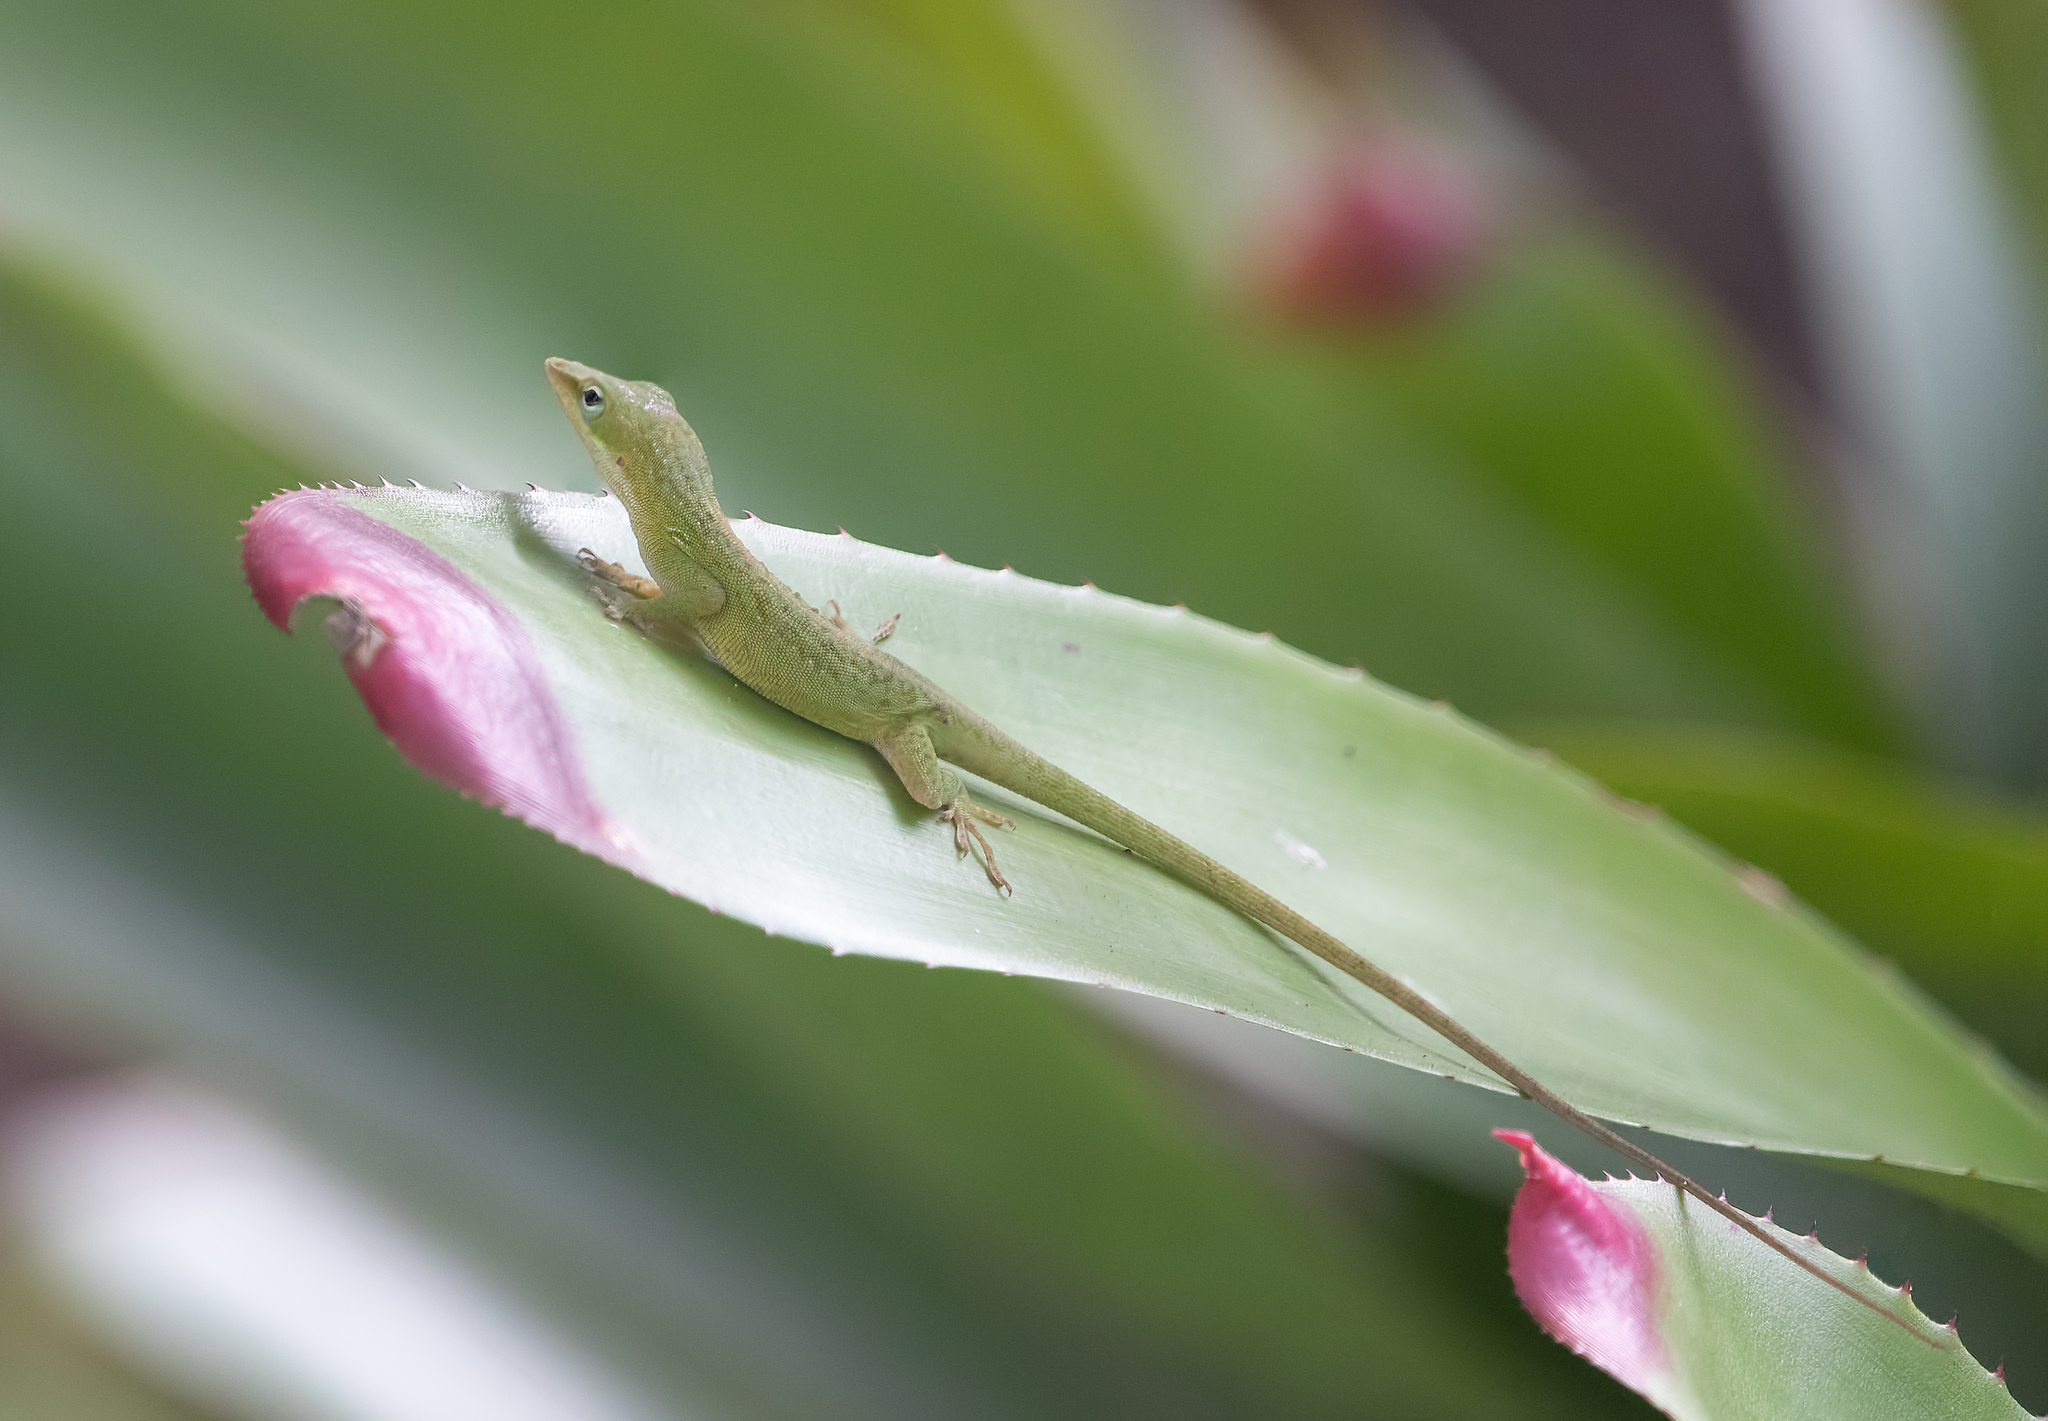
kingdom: Animalia
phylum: Chordata
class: Squamata
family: Dactyloidae
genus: Anolis
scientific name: Anolis carolinensis
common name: Green anole
